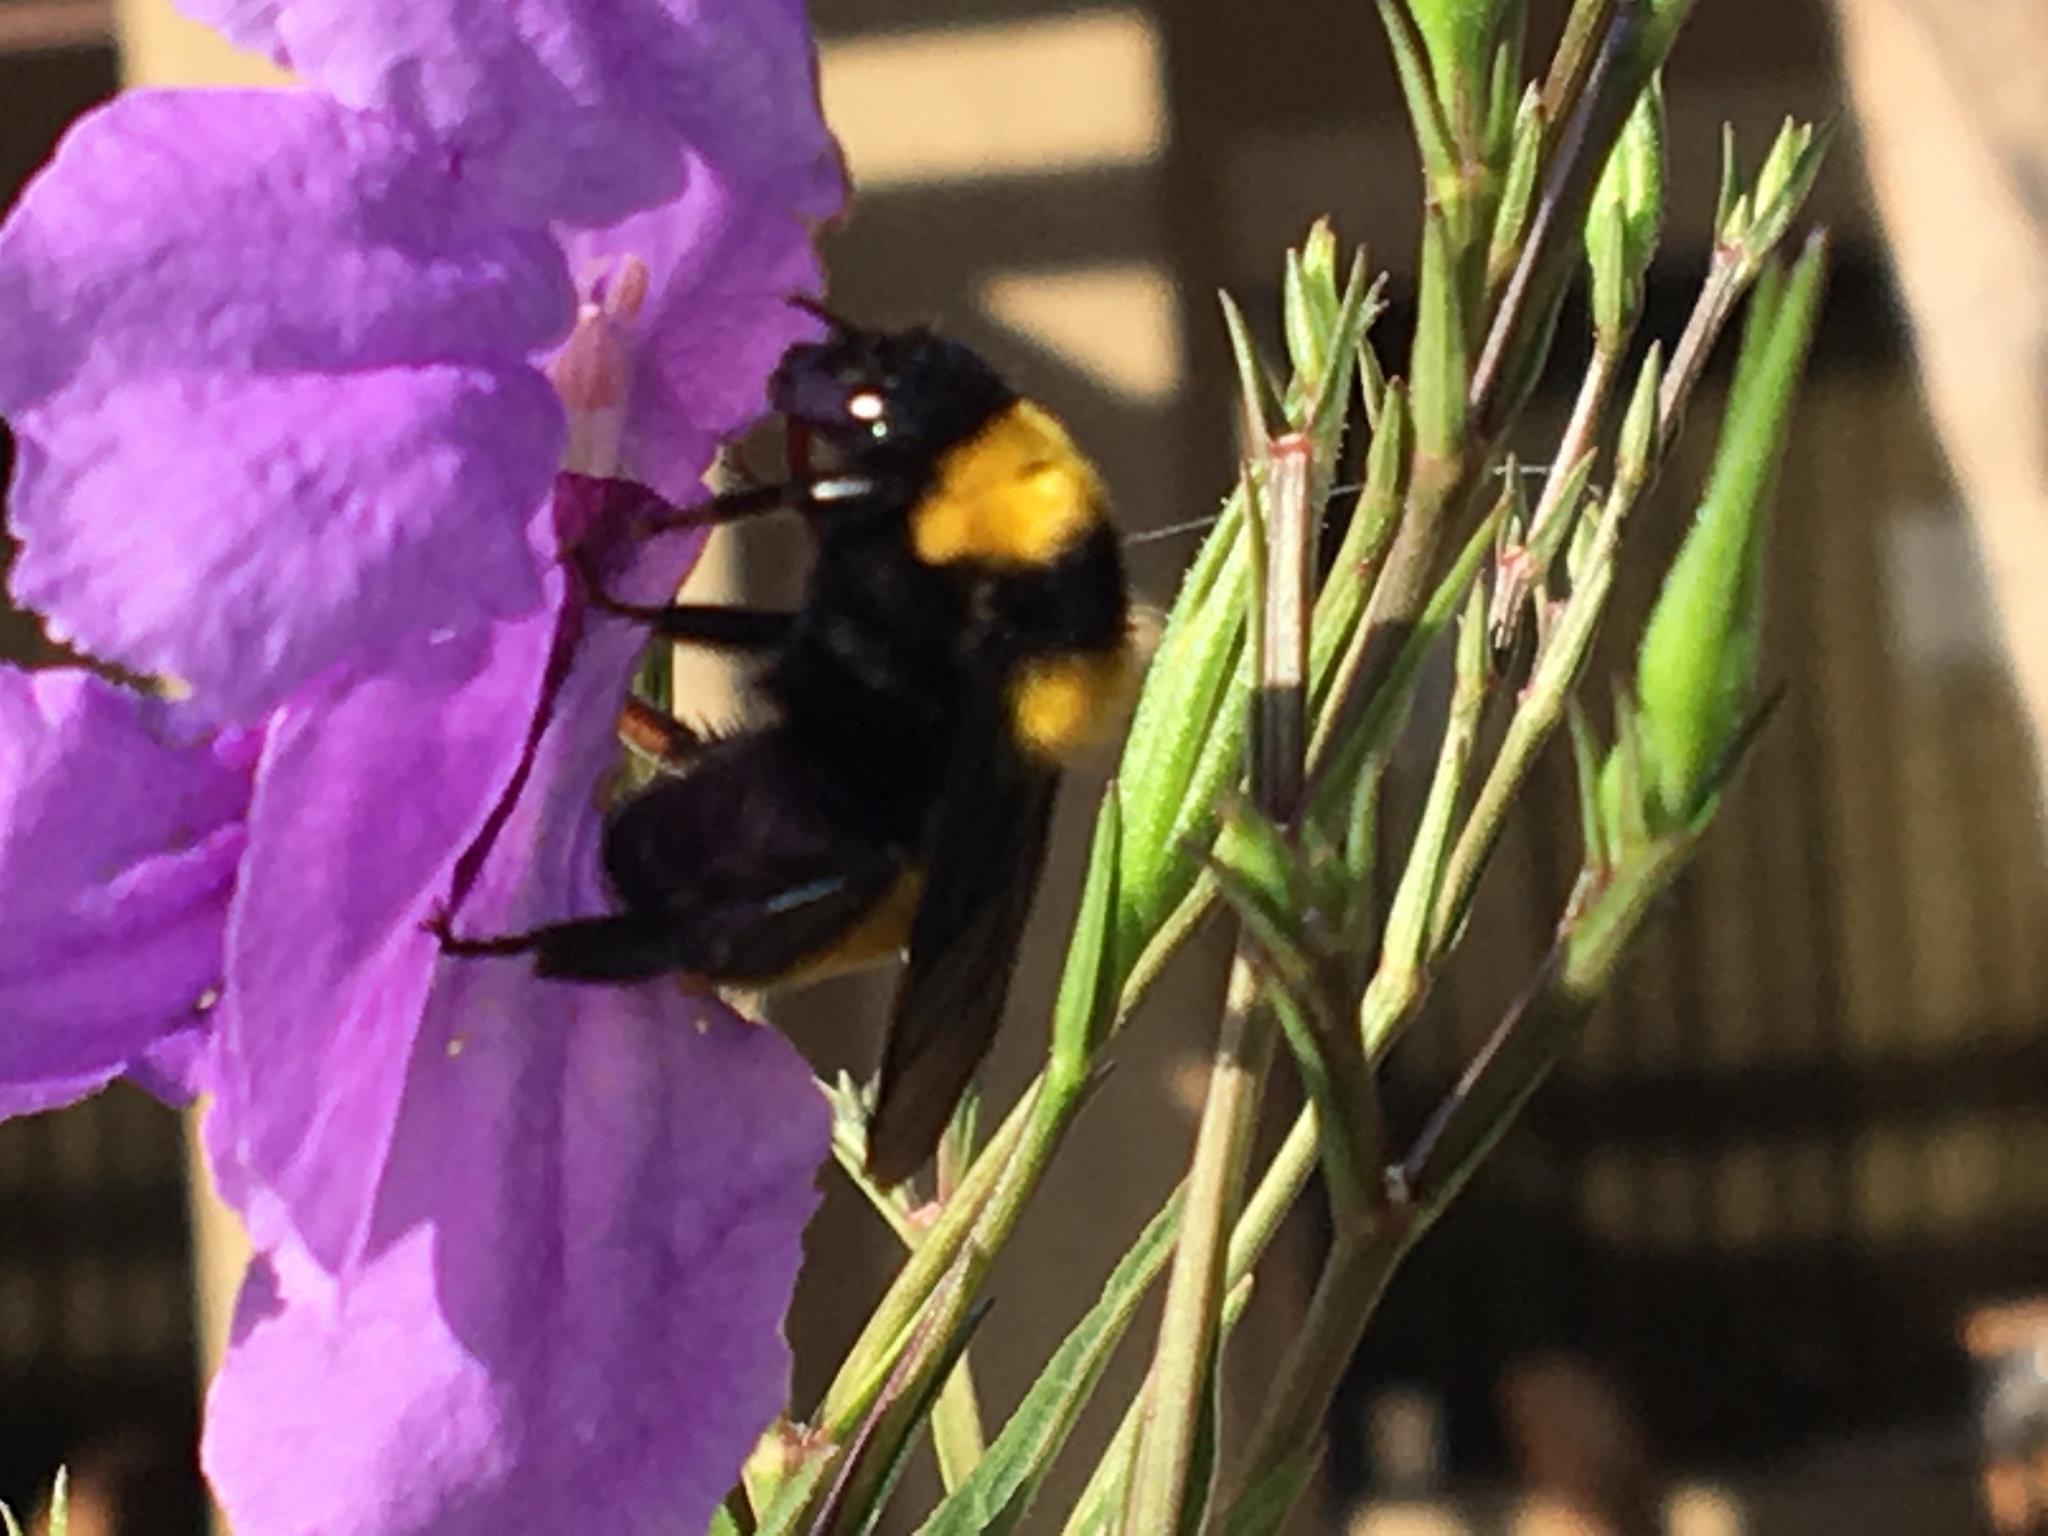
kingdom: Animalia
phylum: Arthropoda
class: Insecta
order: Hymenoptera
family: Apidae
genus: Bombus
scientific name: Bombus sonorus
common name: Sonoran bumble bee
